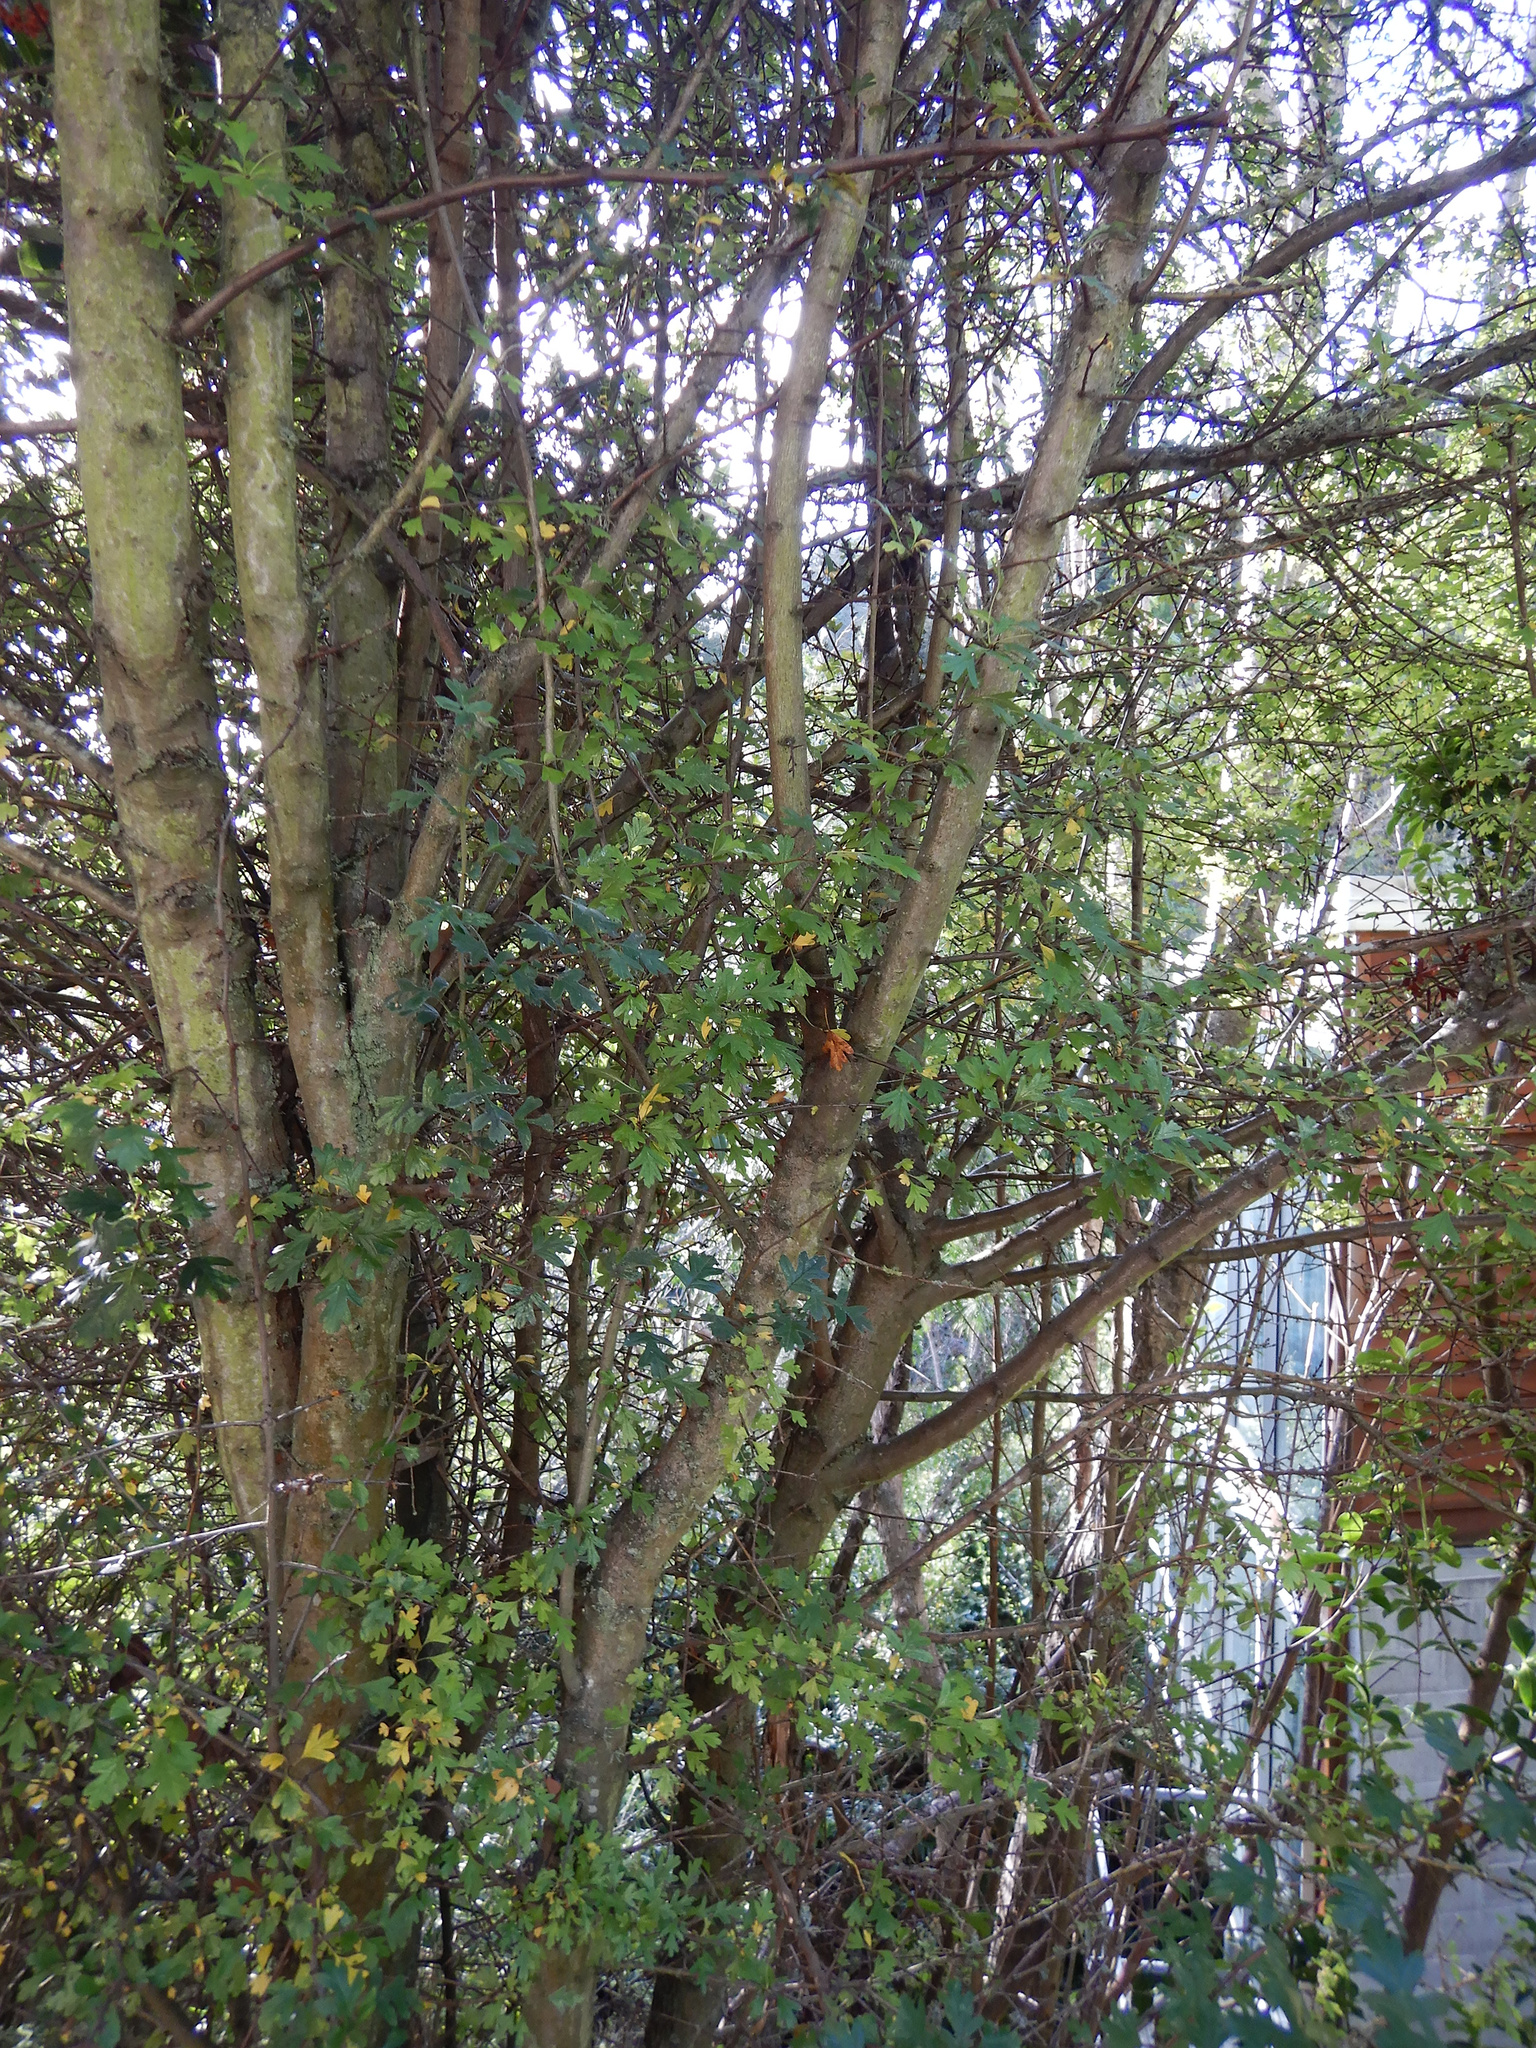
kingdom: Plantae
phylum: Tracheophyta
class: Magnoliopsida
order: Rosales
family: Rosaceae
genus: Crataegus
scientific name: Crataegus monogyna
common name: Hawthorn
